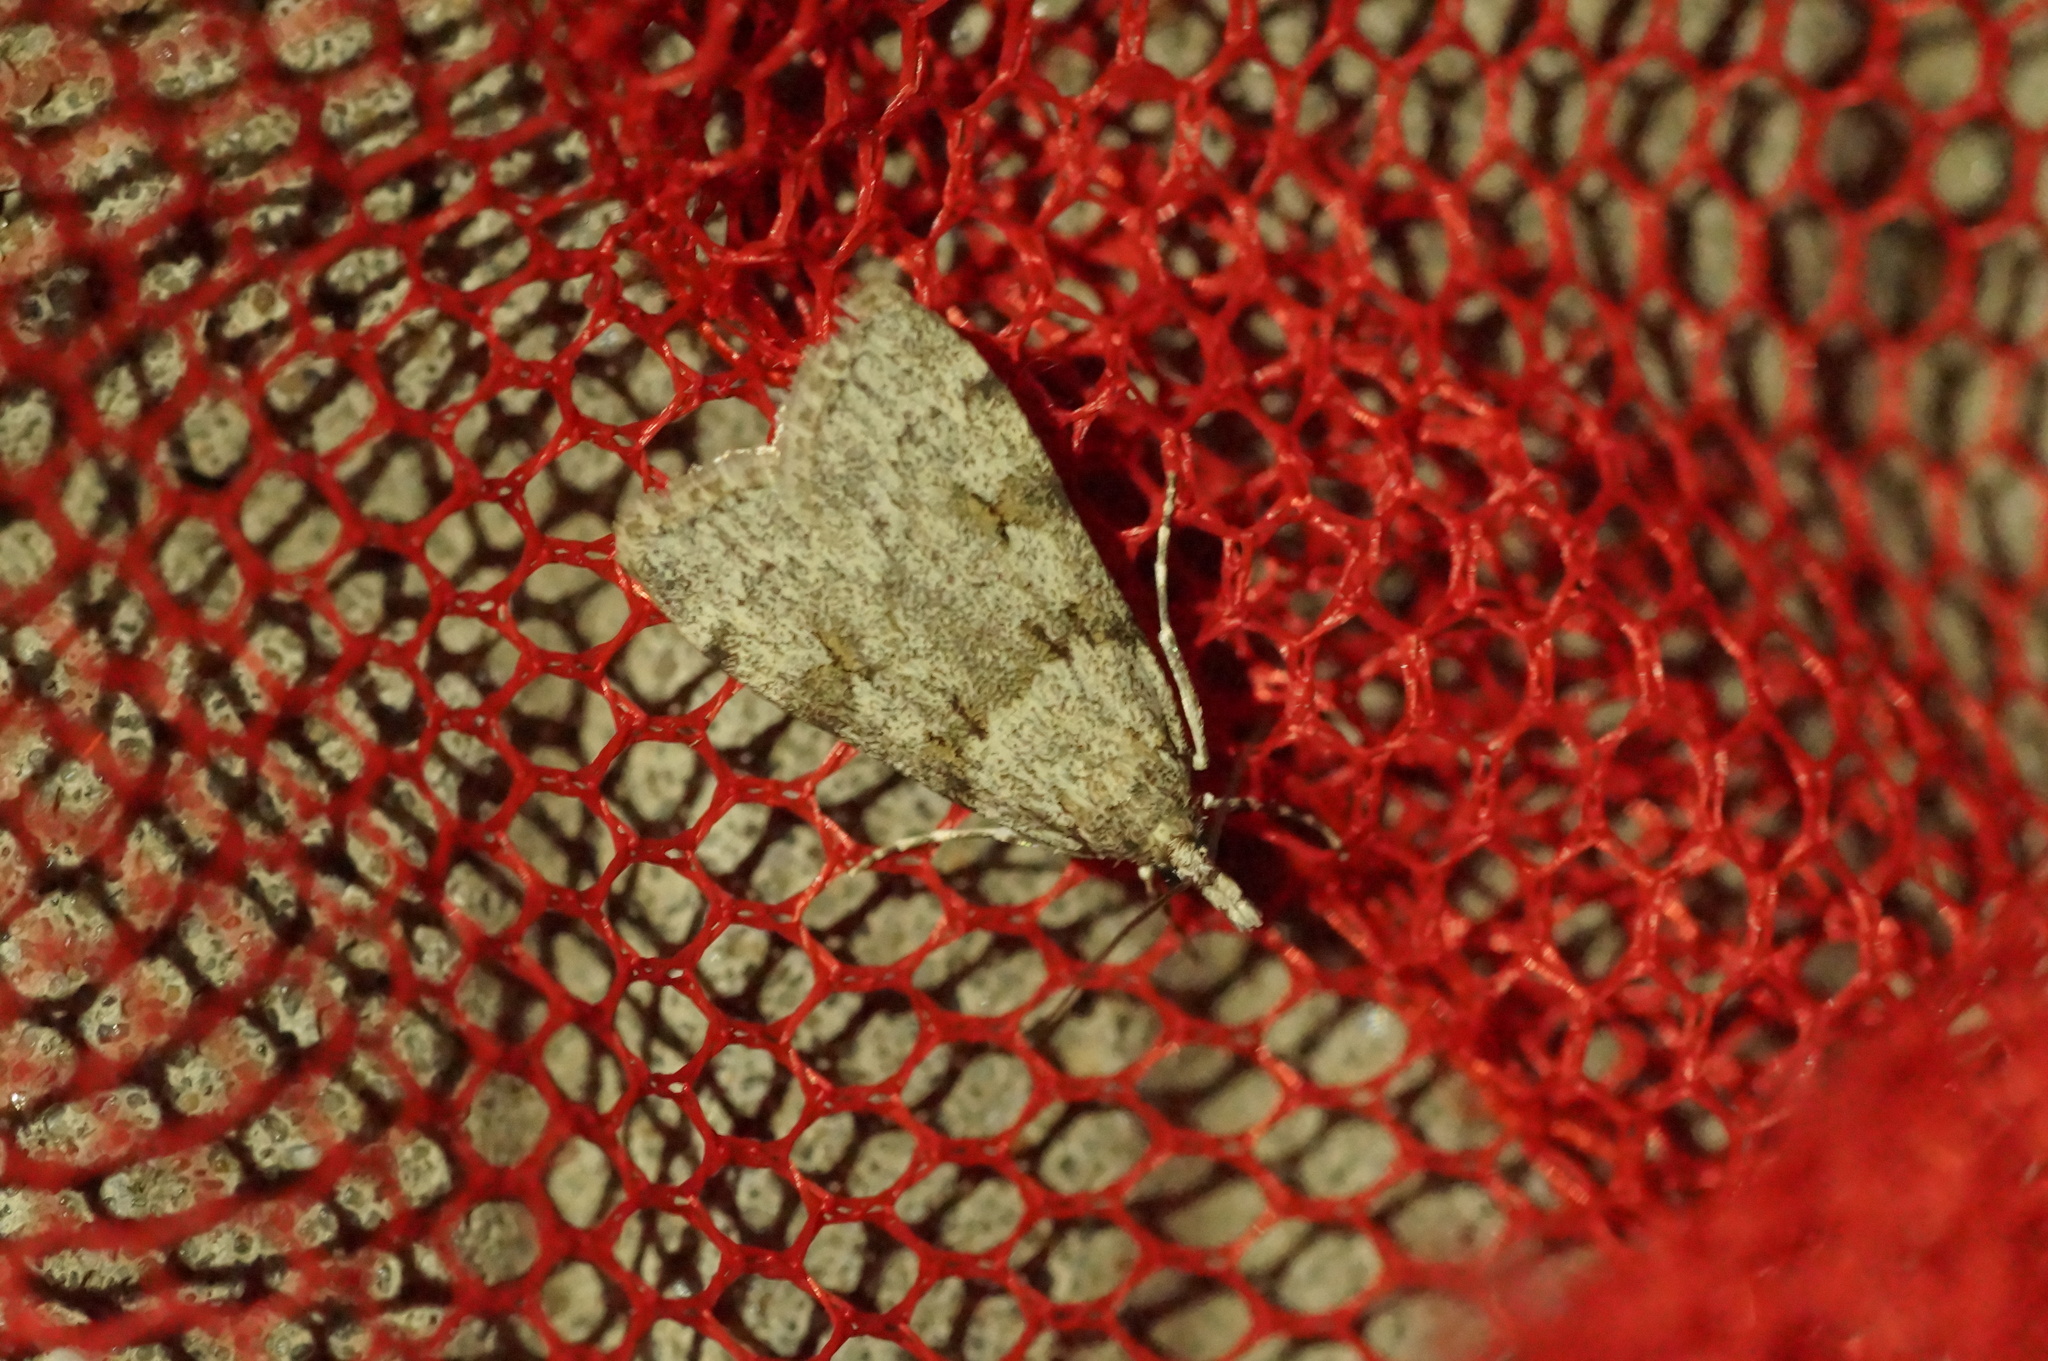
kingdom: Animalia
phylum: Arthropoda
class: Insecta
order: Lepidoptera
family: Crambidae
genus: Scoparia
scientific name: Scoparia cembrella
